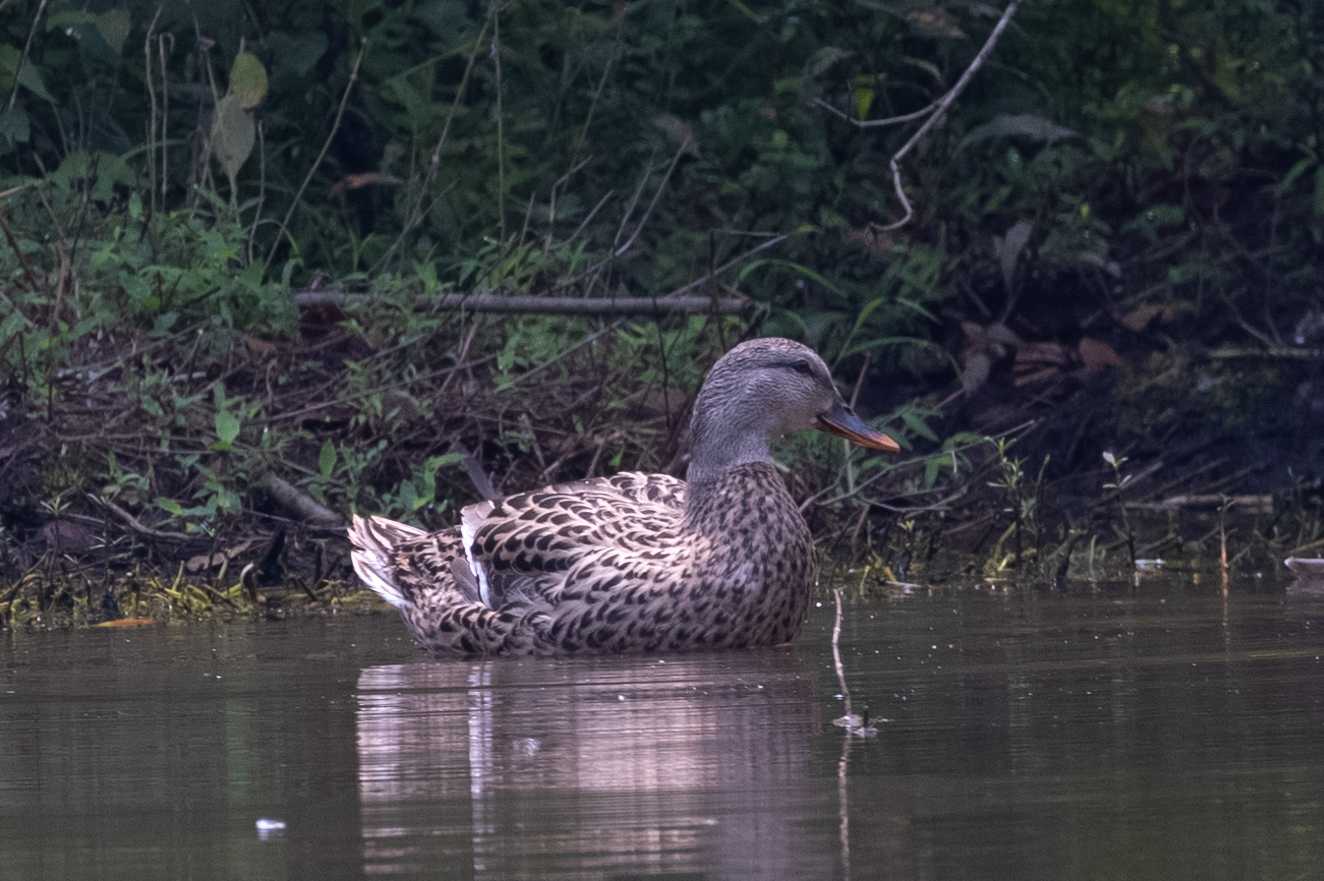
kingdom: Animalia
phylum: Chordata
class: Aves
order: Anseriformes
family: Anatidae
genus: Anas
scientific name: Anas platyrhynchos
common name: Mallard
